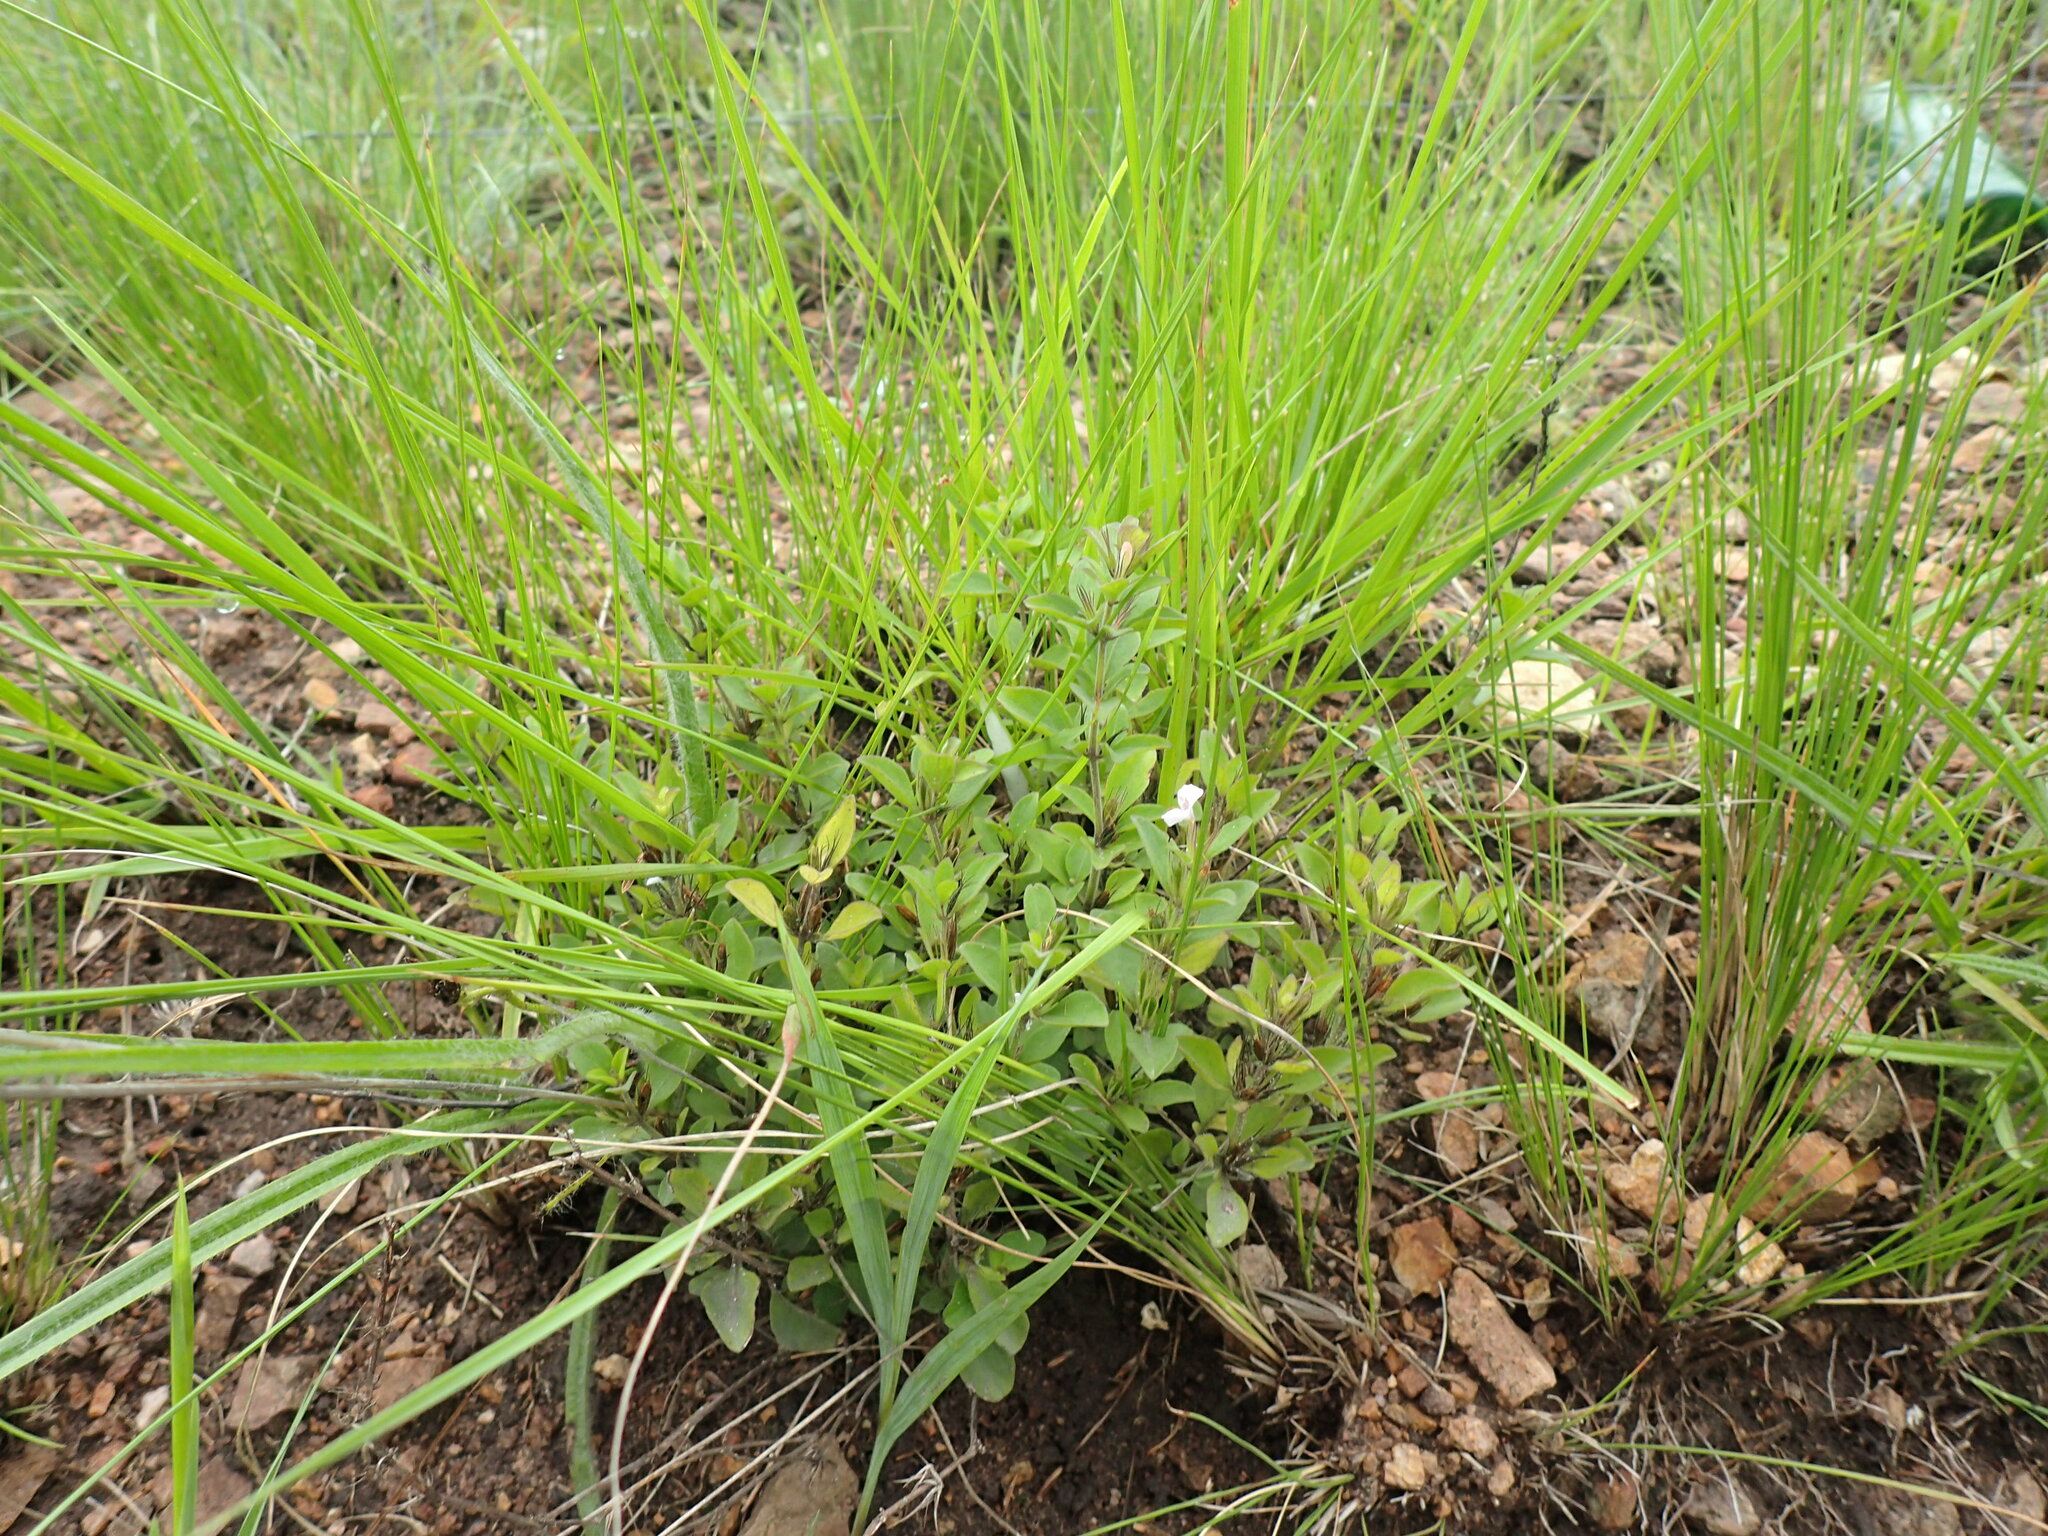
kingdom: Plantae
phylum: Tracheophyta
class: Magnoliopsida
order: Lamiales
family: Acanthaceae
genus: Dyschoriste
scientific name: Dyschoriste setigera
